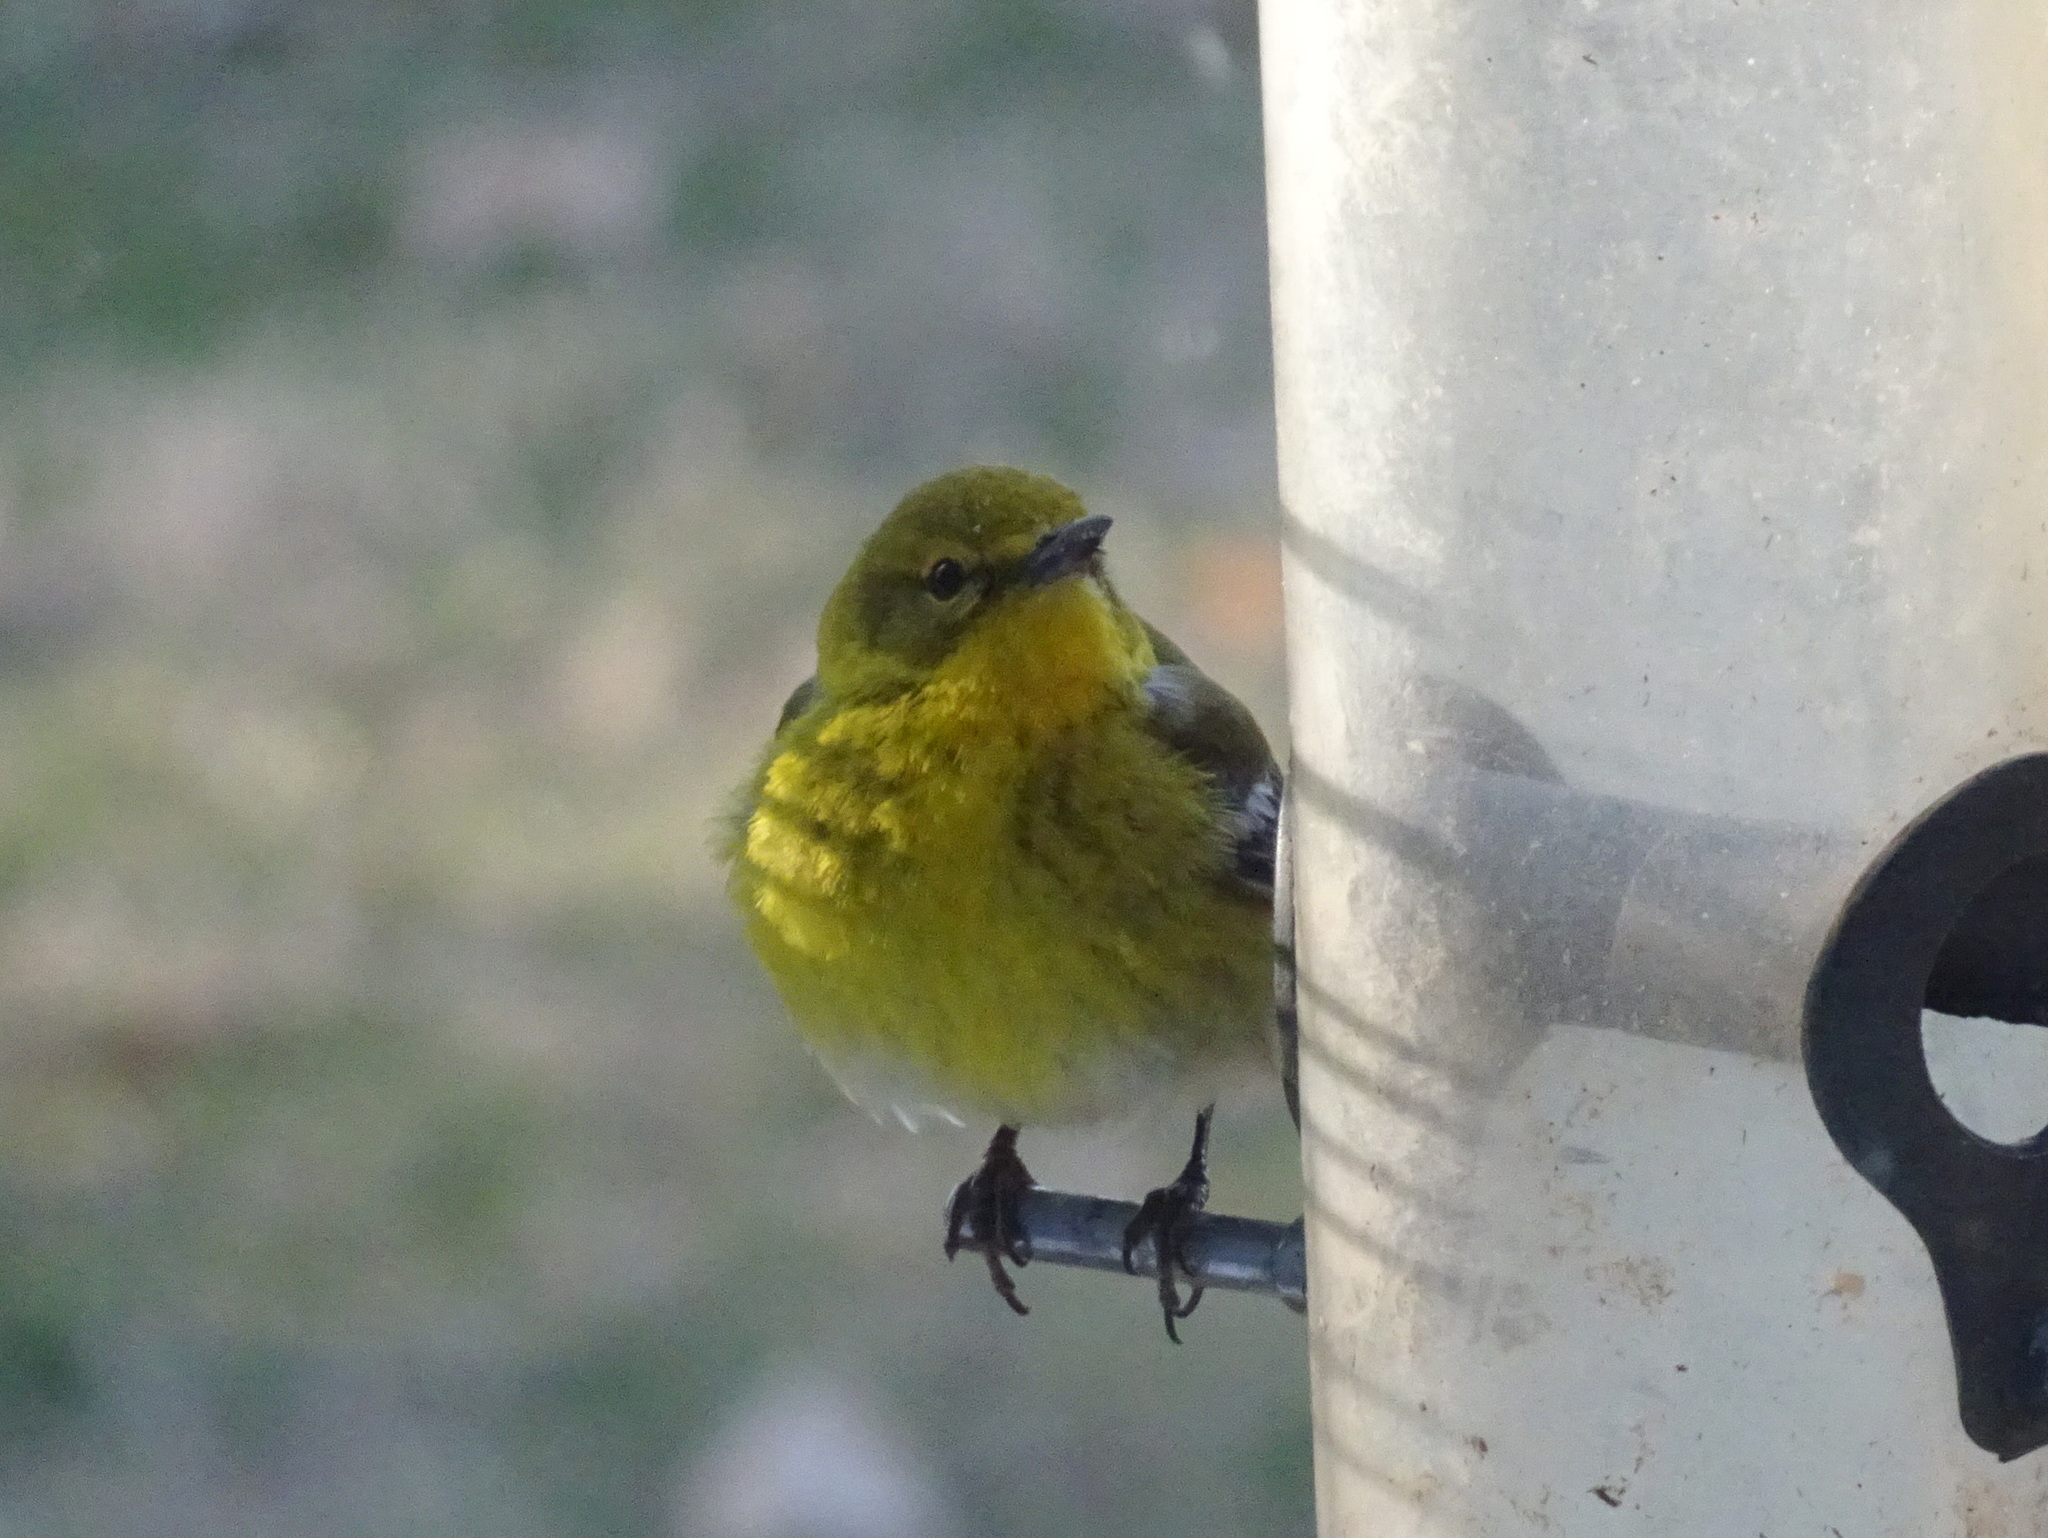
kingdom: Animalia
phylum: Chordata
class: Aves
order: Passeriformes
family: Parulidae
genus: Setophaga
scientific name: Setophaga pinus
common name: Pine warbler
